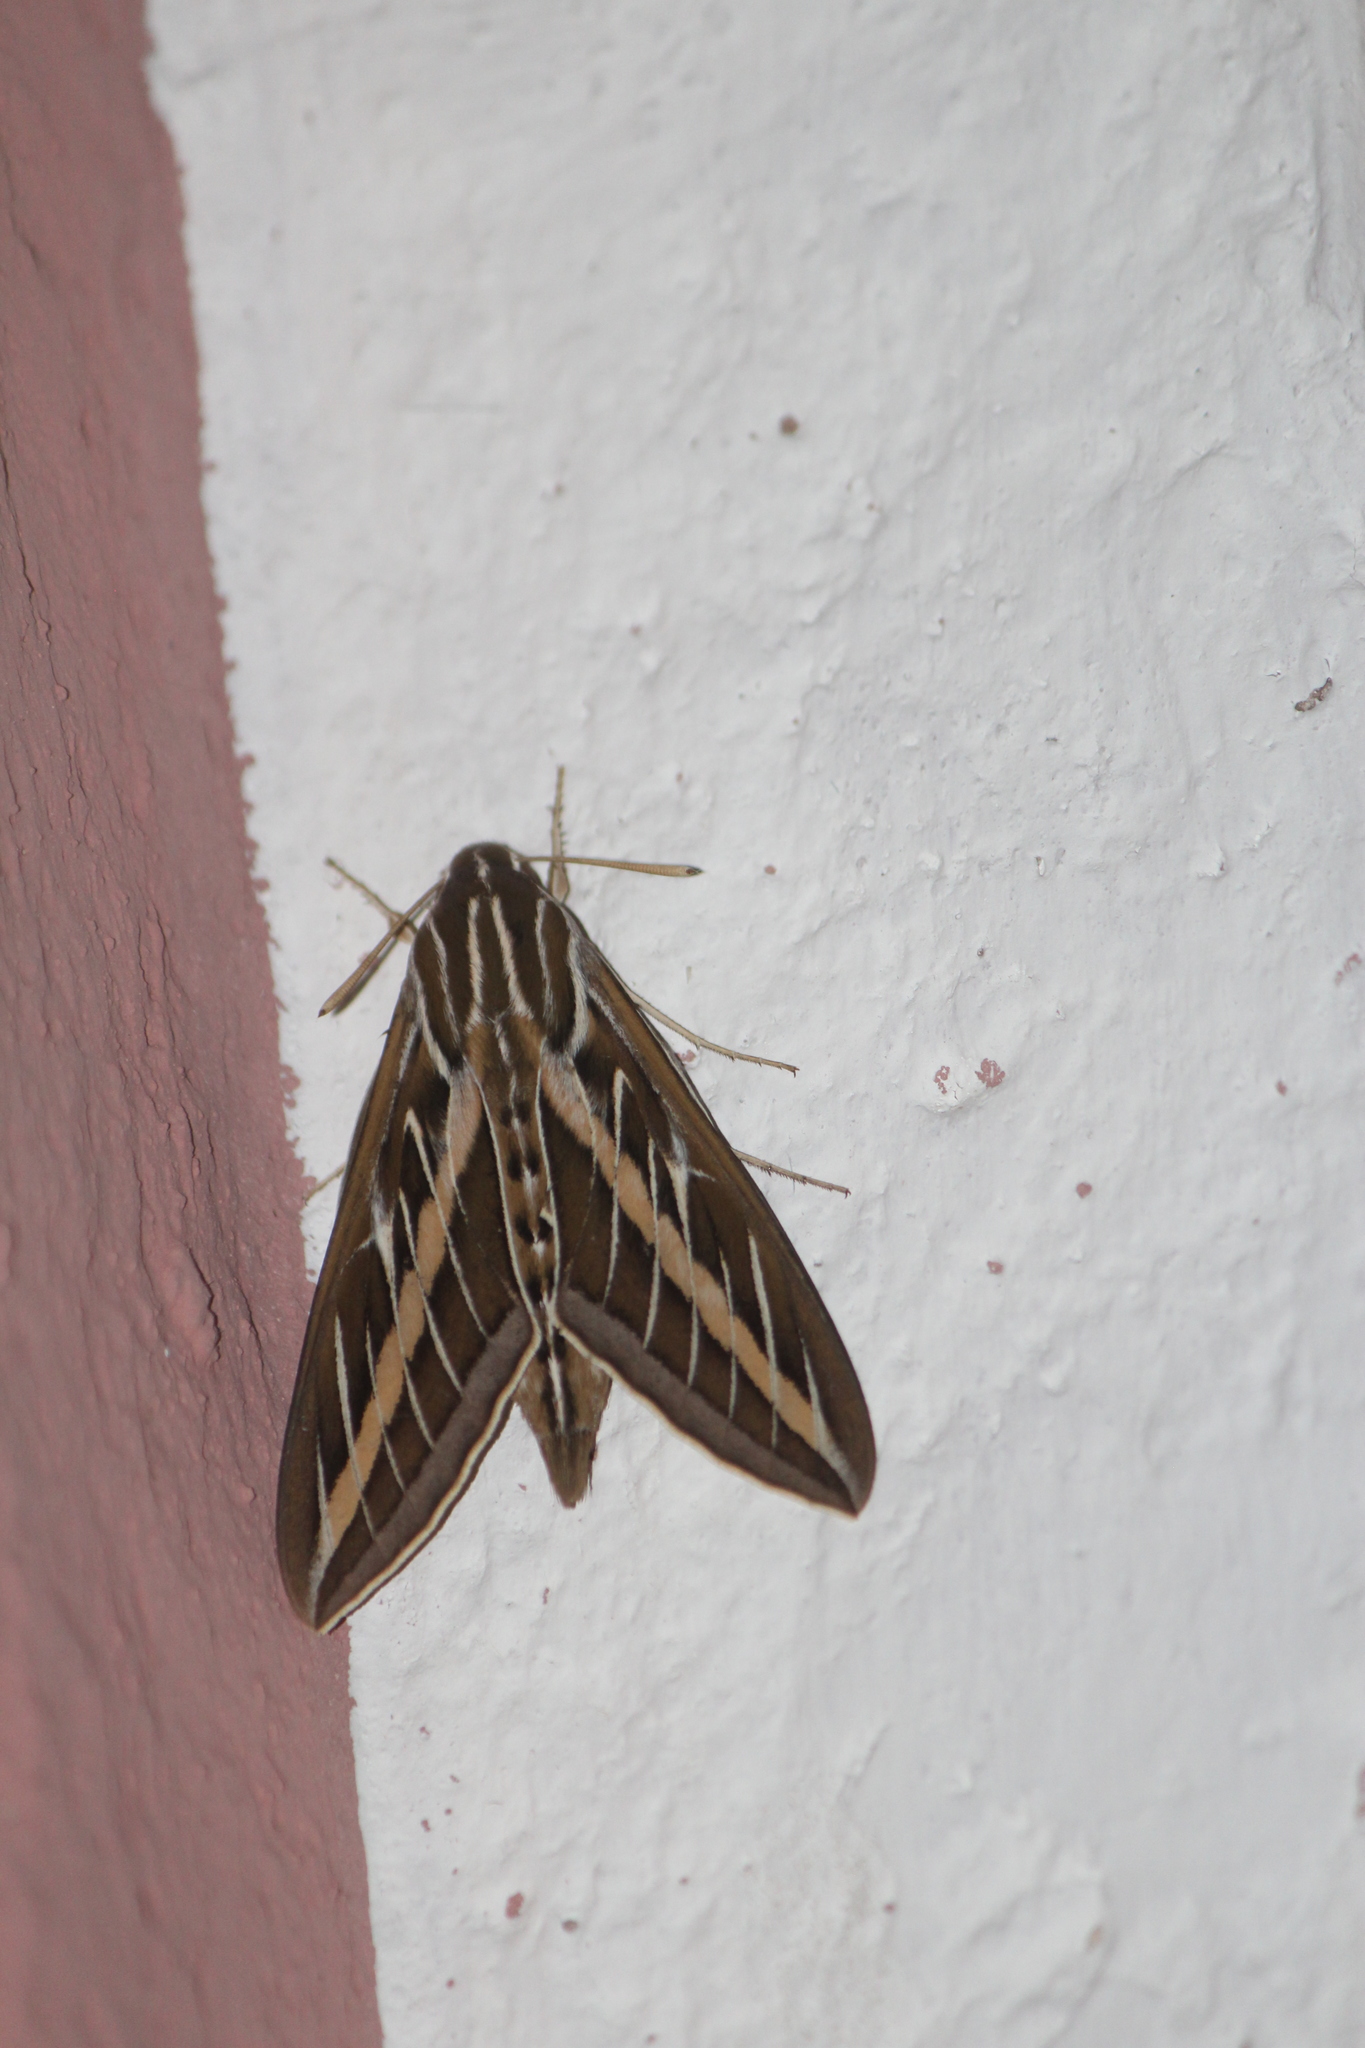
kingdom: Animalia
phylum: Arthropoda
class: Insecta
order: Lepidoptera
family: Sphingidae
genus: Hyles
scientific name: Hyles lineata
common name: White-lined sphinx
